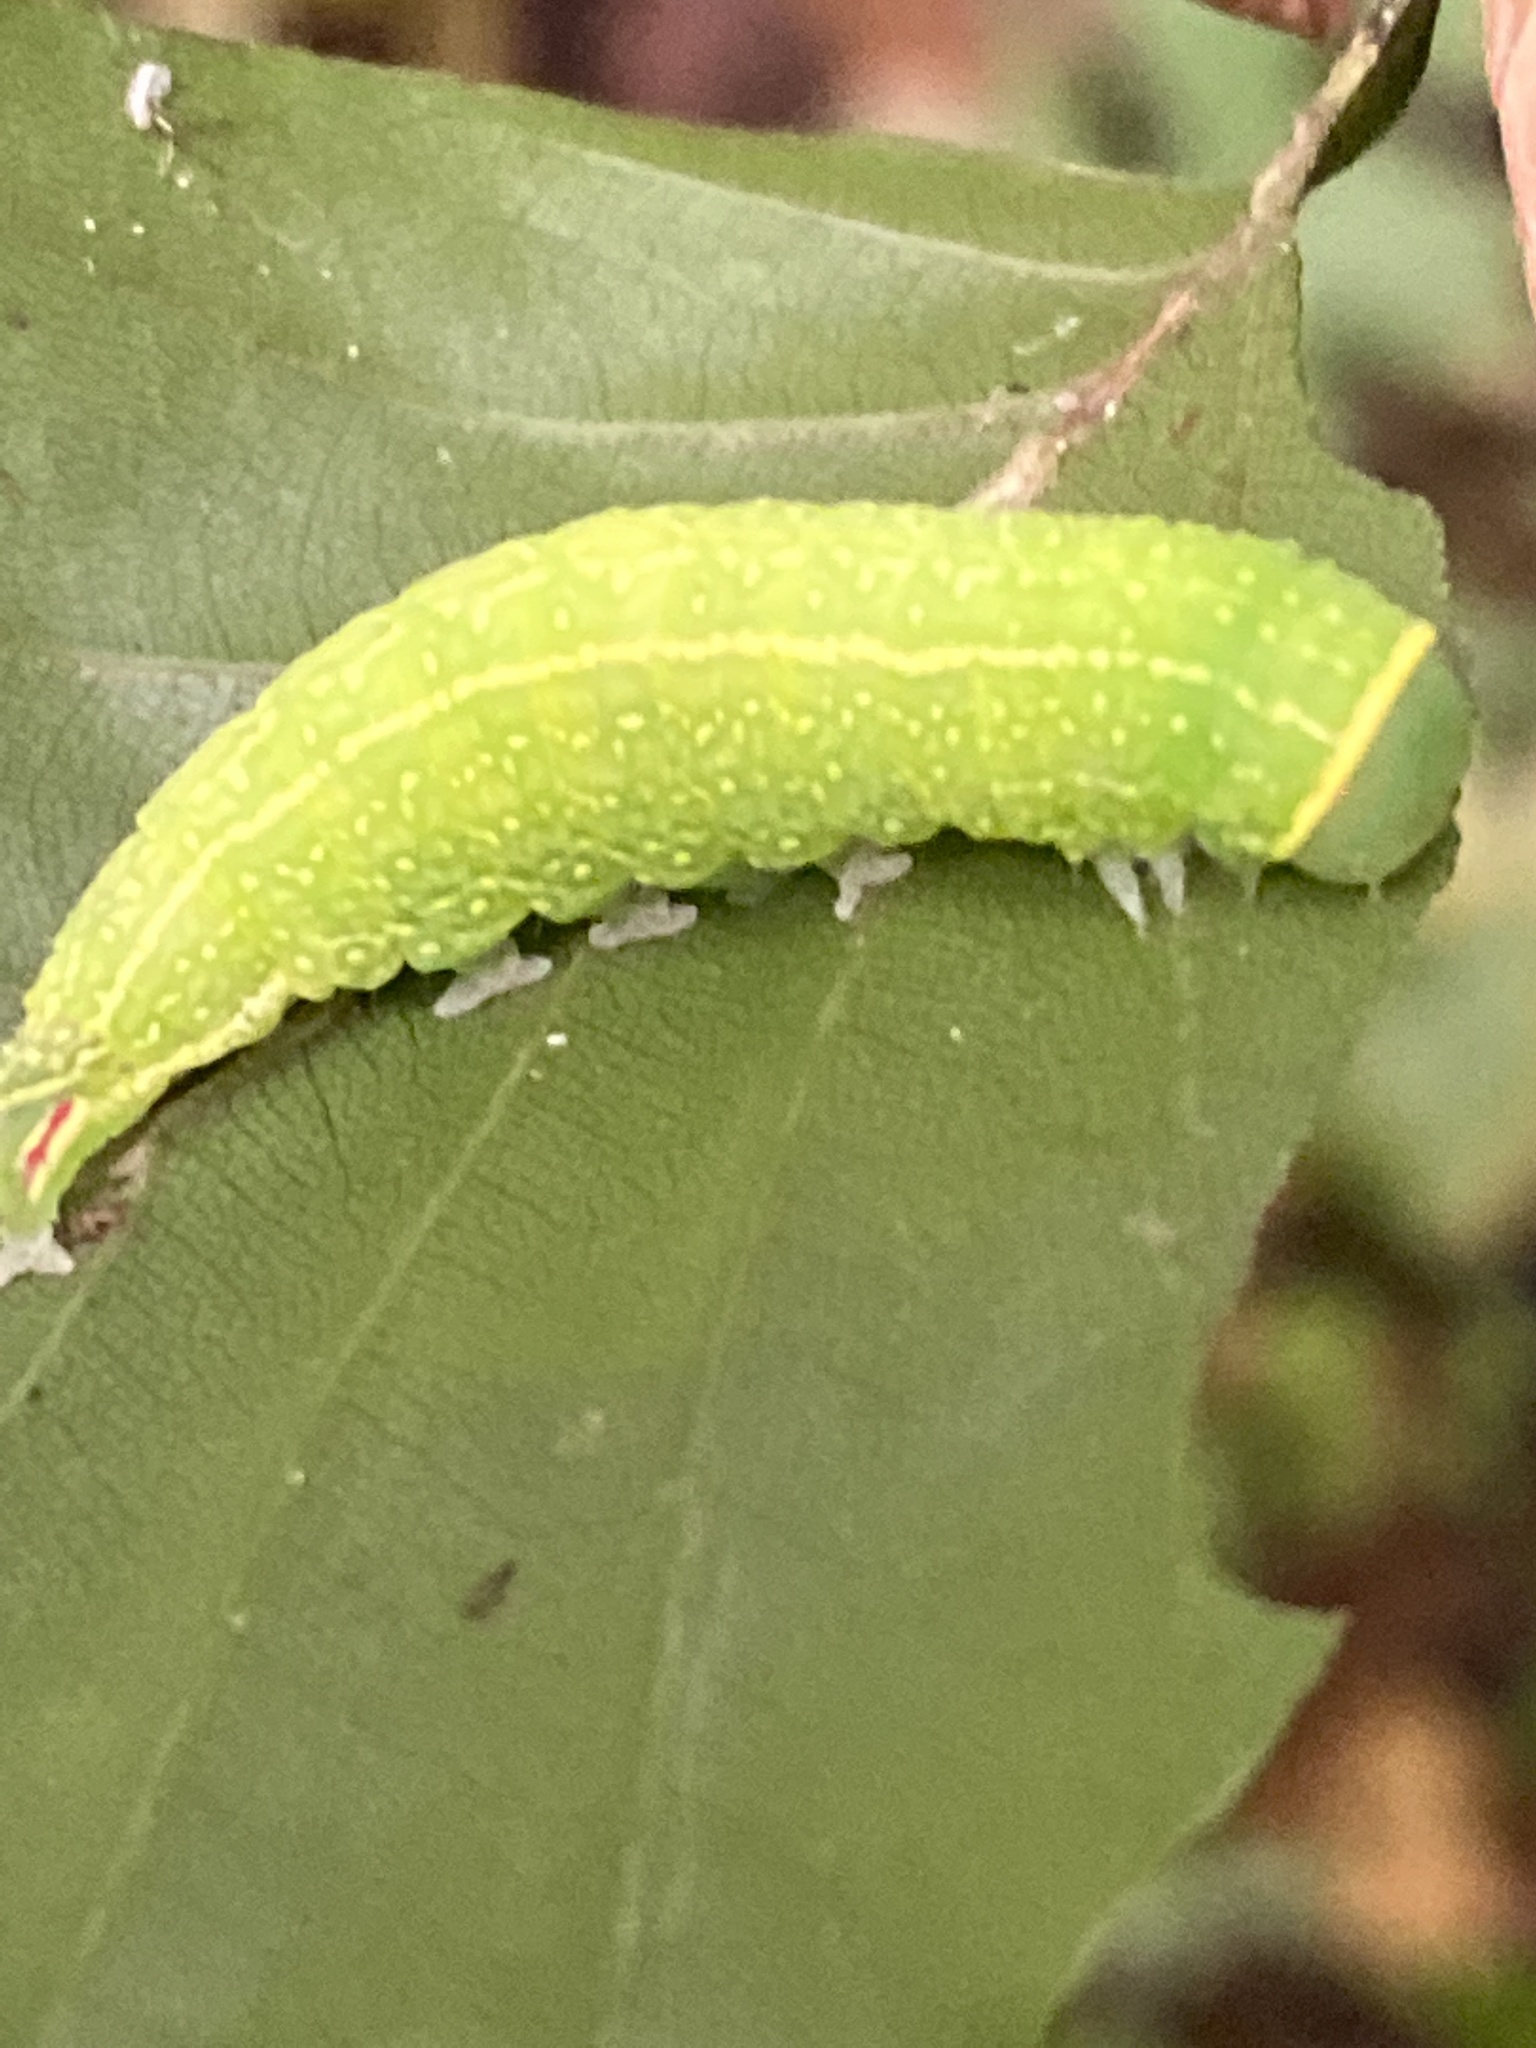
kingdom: Animalia
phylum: Arthropoda
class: Insecta
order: Lepidoptera
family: Nolidae
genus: Pseudoips
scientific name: Pseudoips prasinana
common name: Green silver-lines
